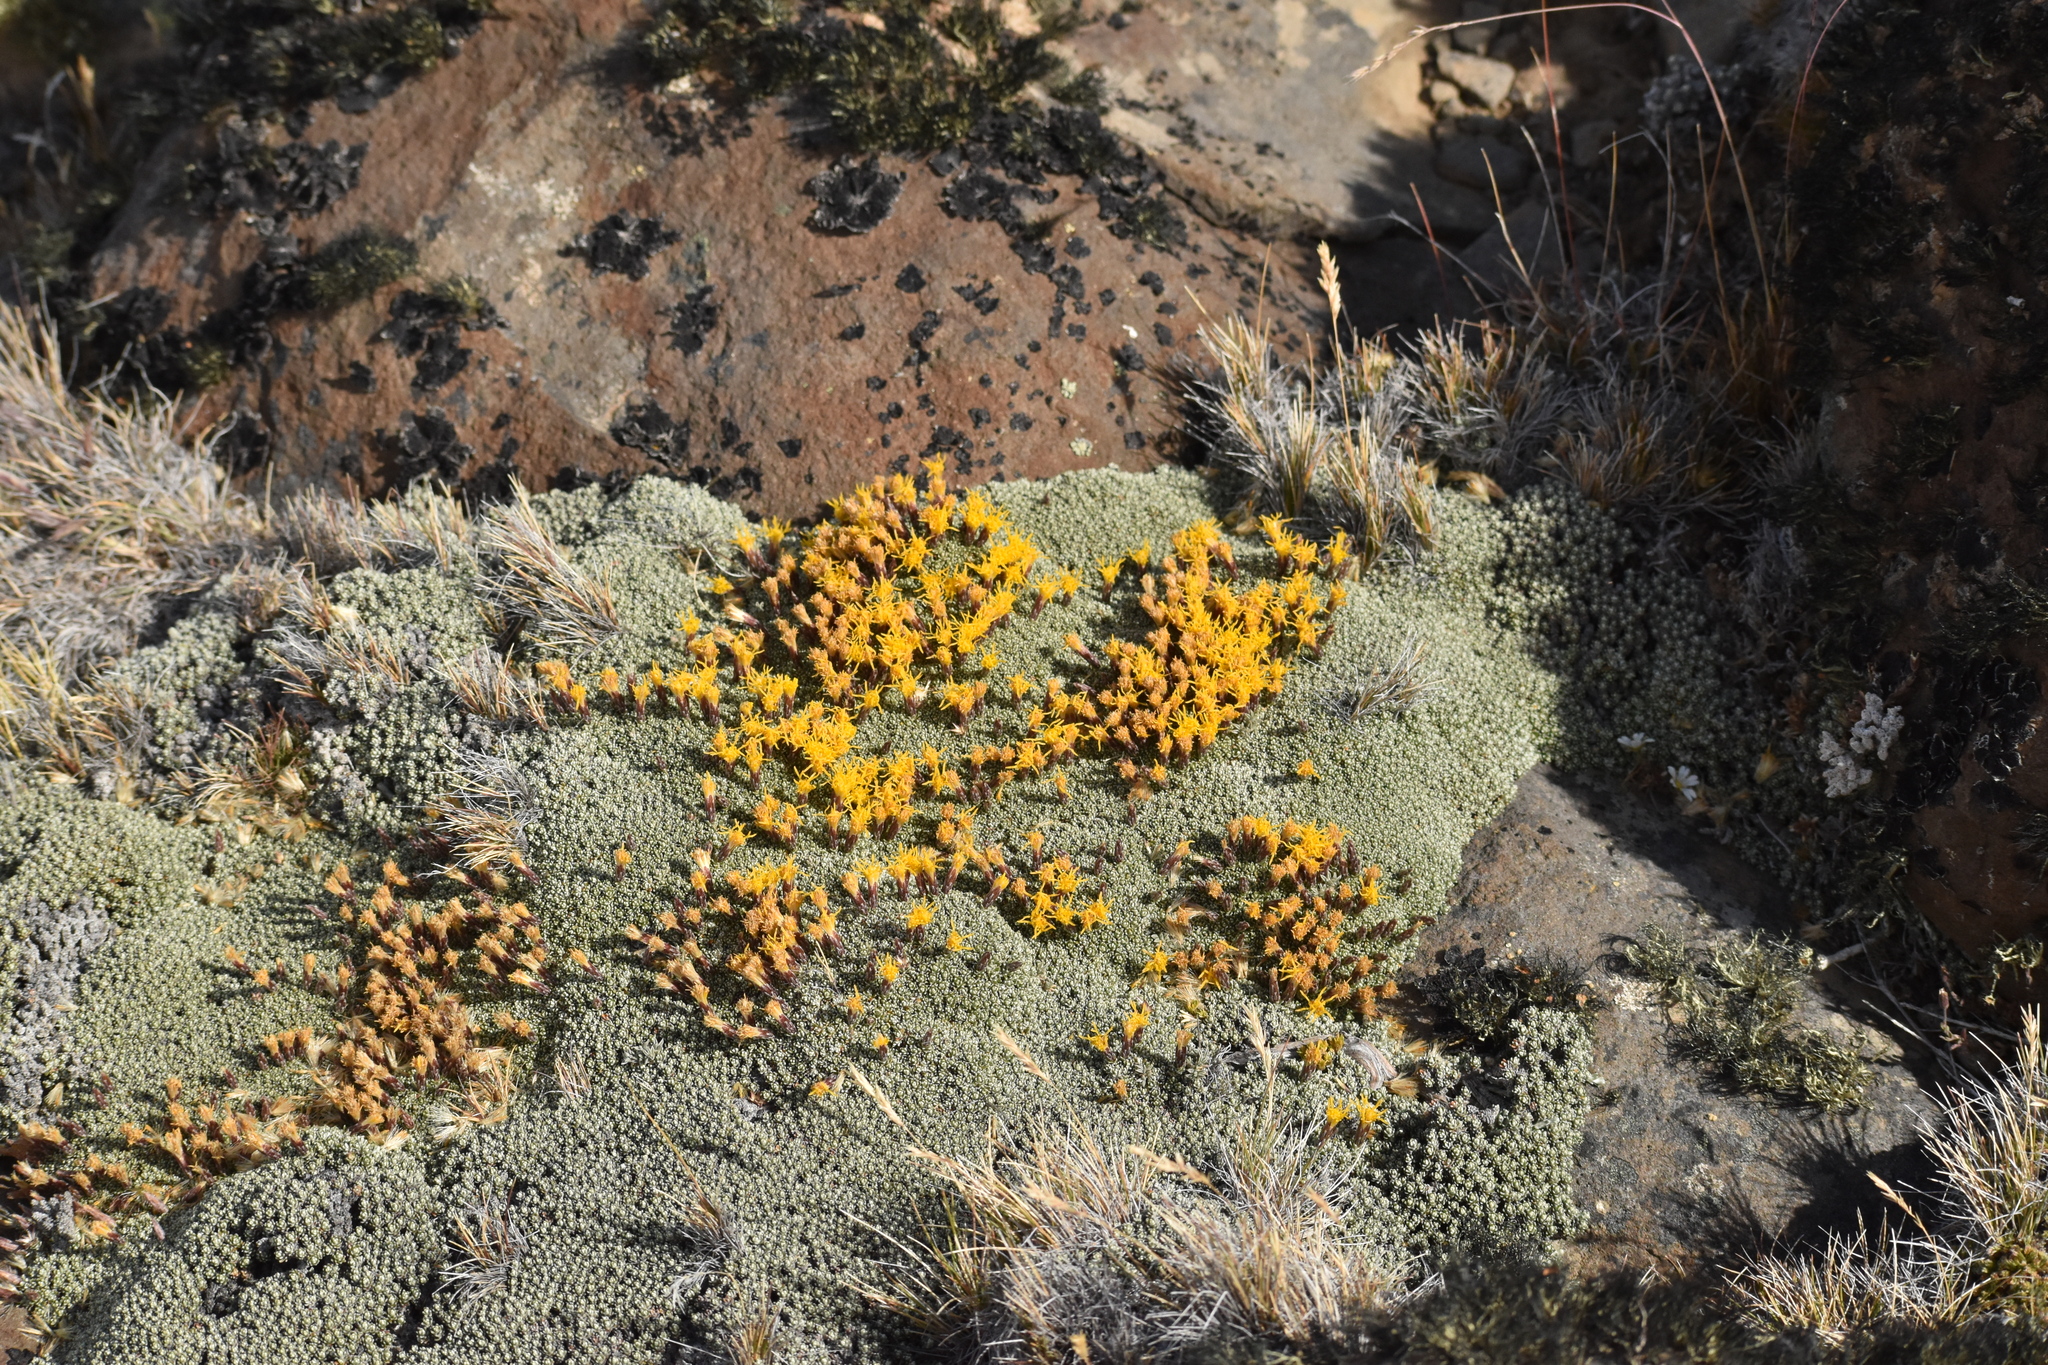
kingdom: Plantae
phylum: Tracheophyta
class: Magnoliopsida
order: Asterales
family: Asteraceae
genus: Nardophyllum
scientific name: Nardophyllum bryoides
